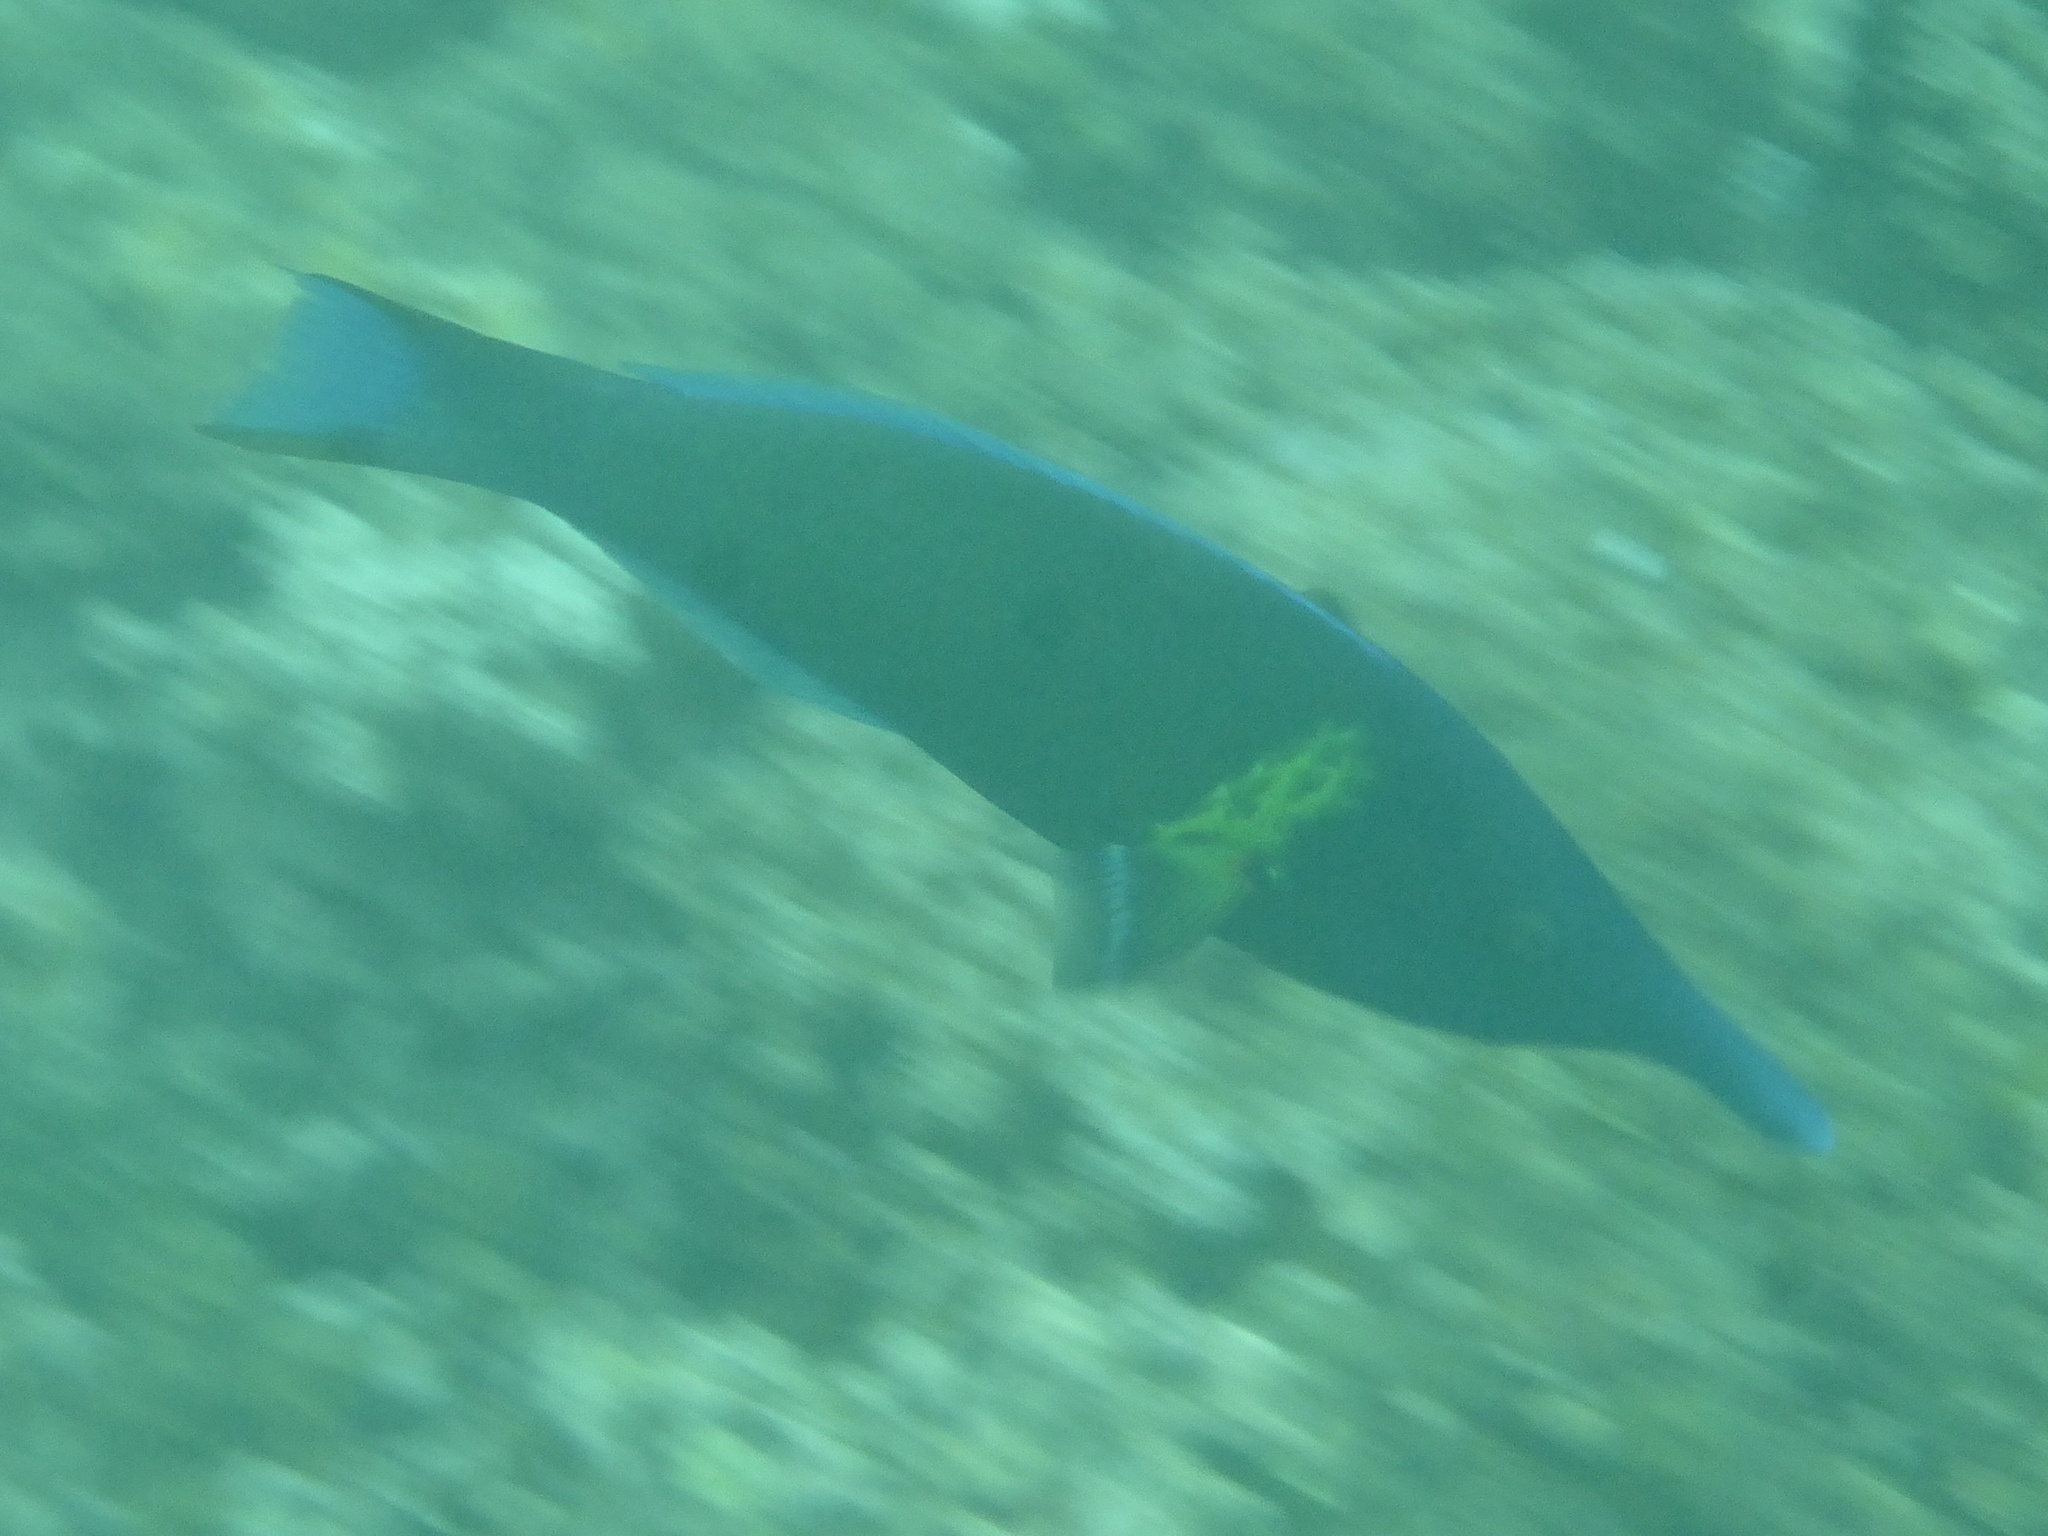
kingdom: Animalia
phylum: Chordata
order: Perciformes
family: Labridae
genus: Gomphosus
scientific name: Gomphosus varius
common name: Bird wrasse
